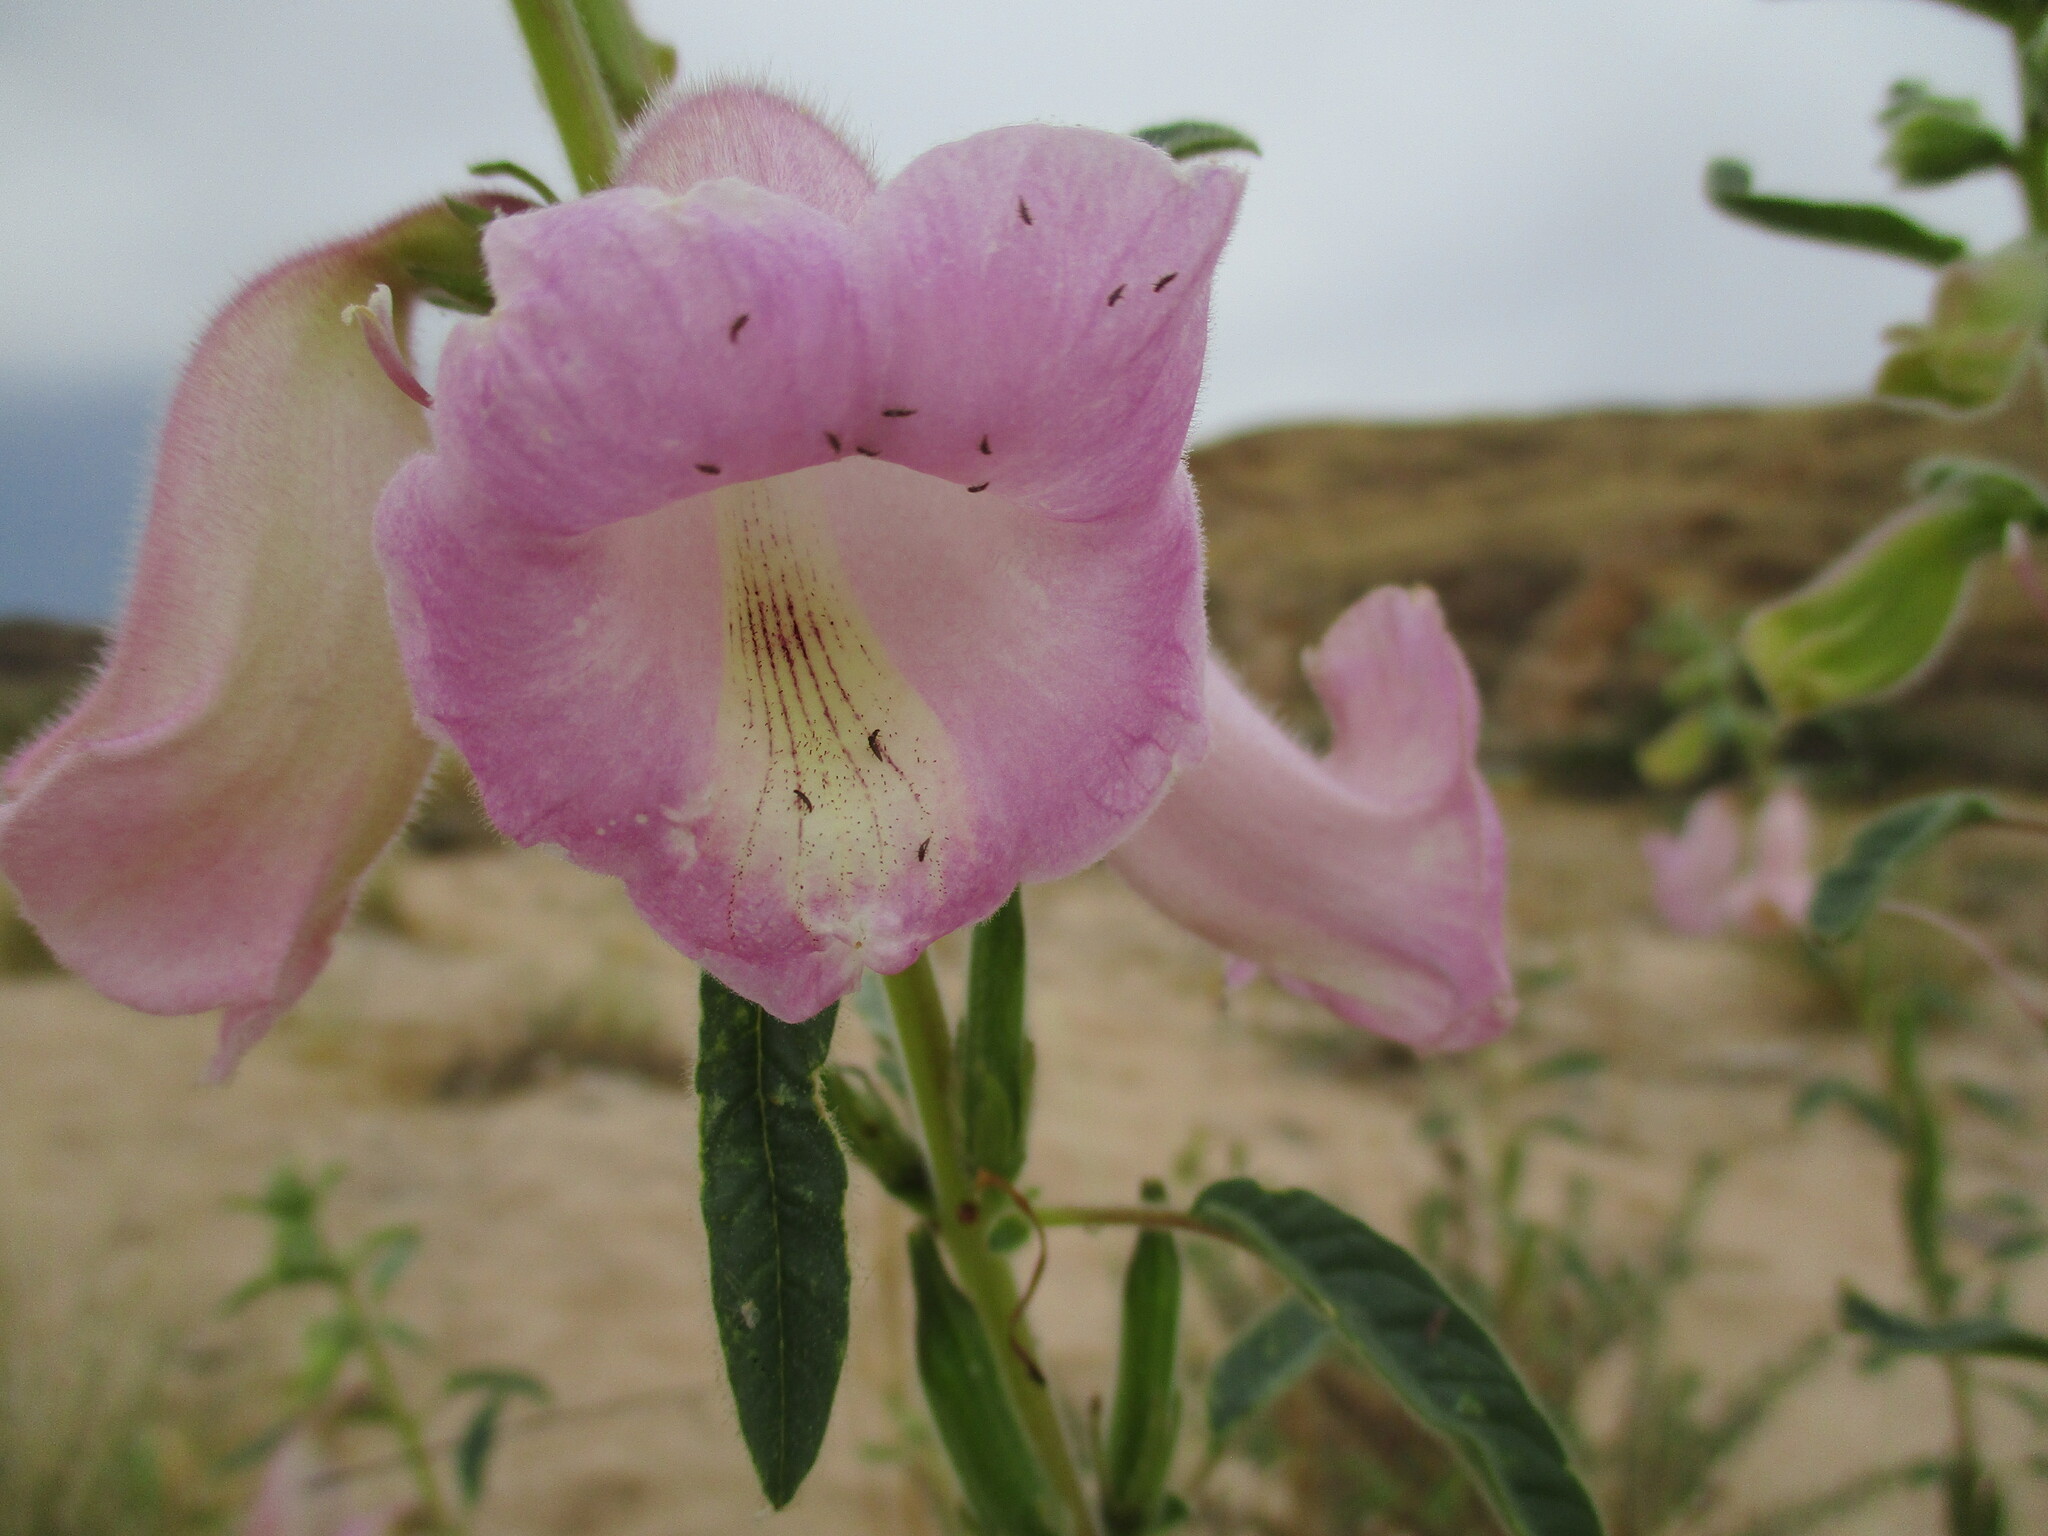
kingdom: Plantae
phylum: Tracheophyta
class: Magnoliopsida
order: Lamiales
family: Pedaliaceae
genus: Sesamum
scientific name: Sesamum marlothii
